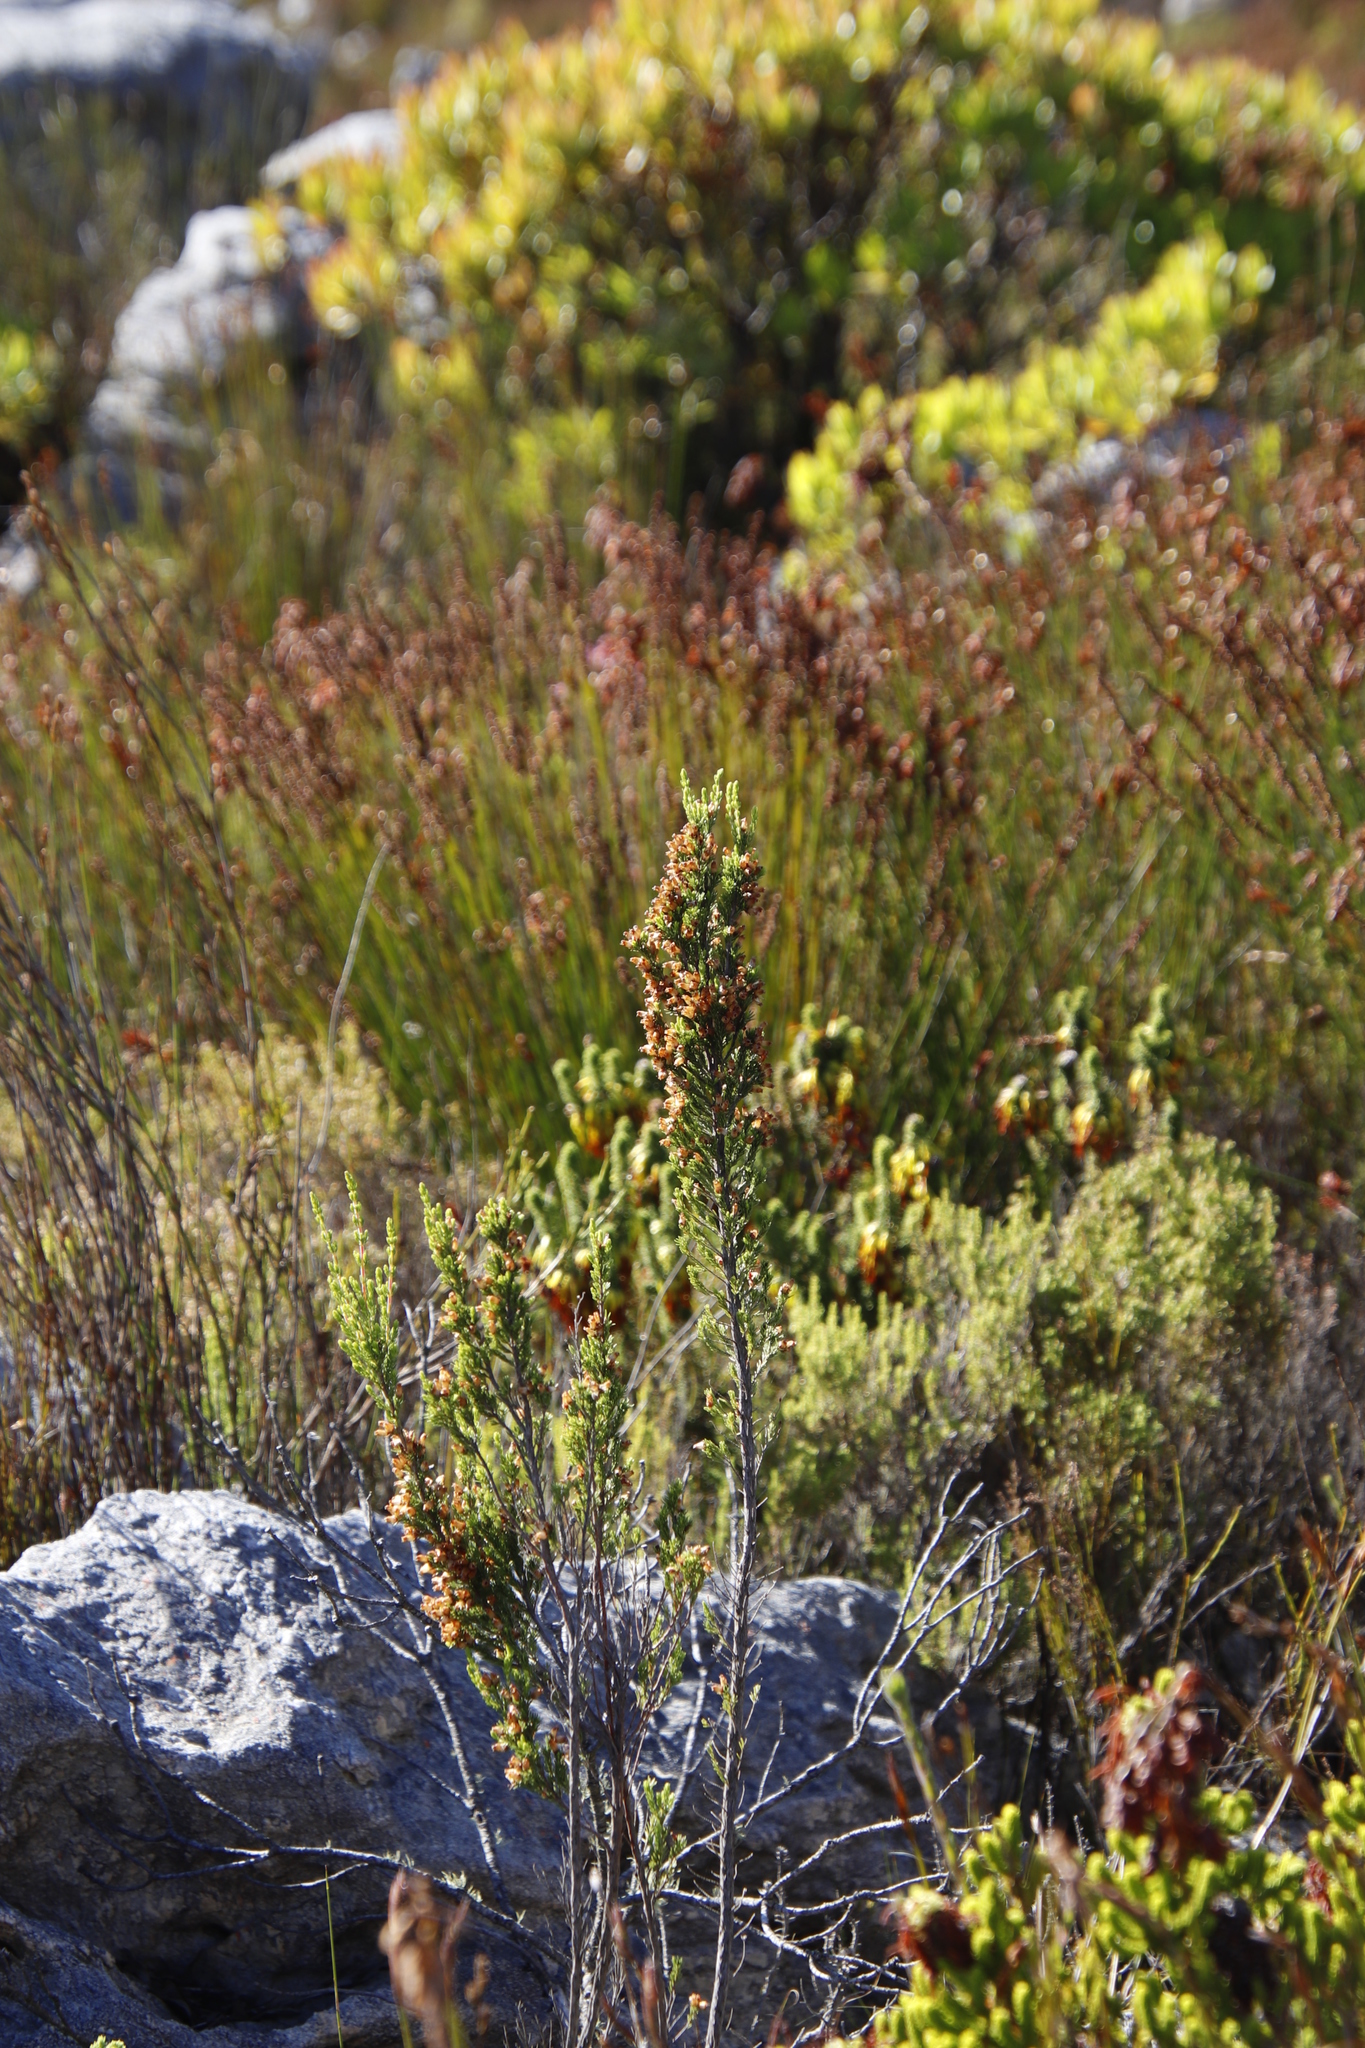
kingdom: Plantae
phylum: Tracheophyta
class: Magnoliopsida
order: Ericales
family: Ericaceae
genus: Erica
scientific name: Erica sitiens
